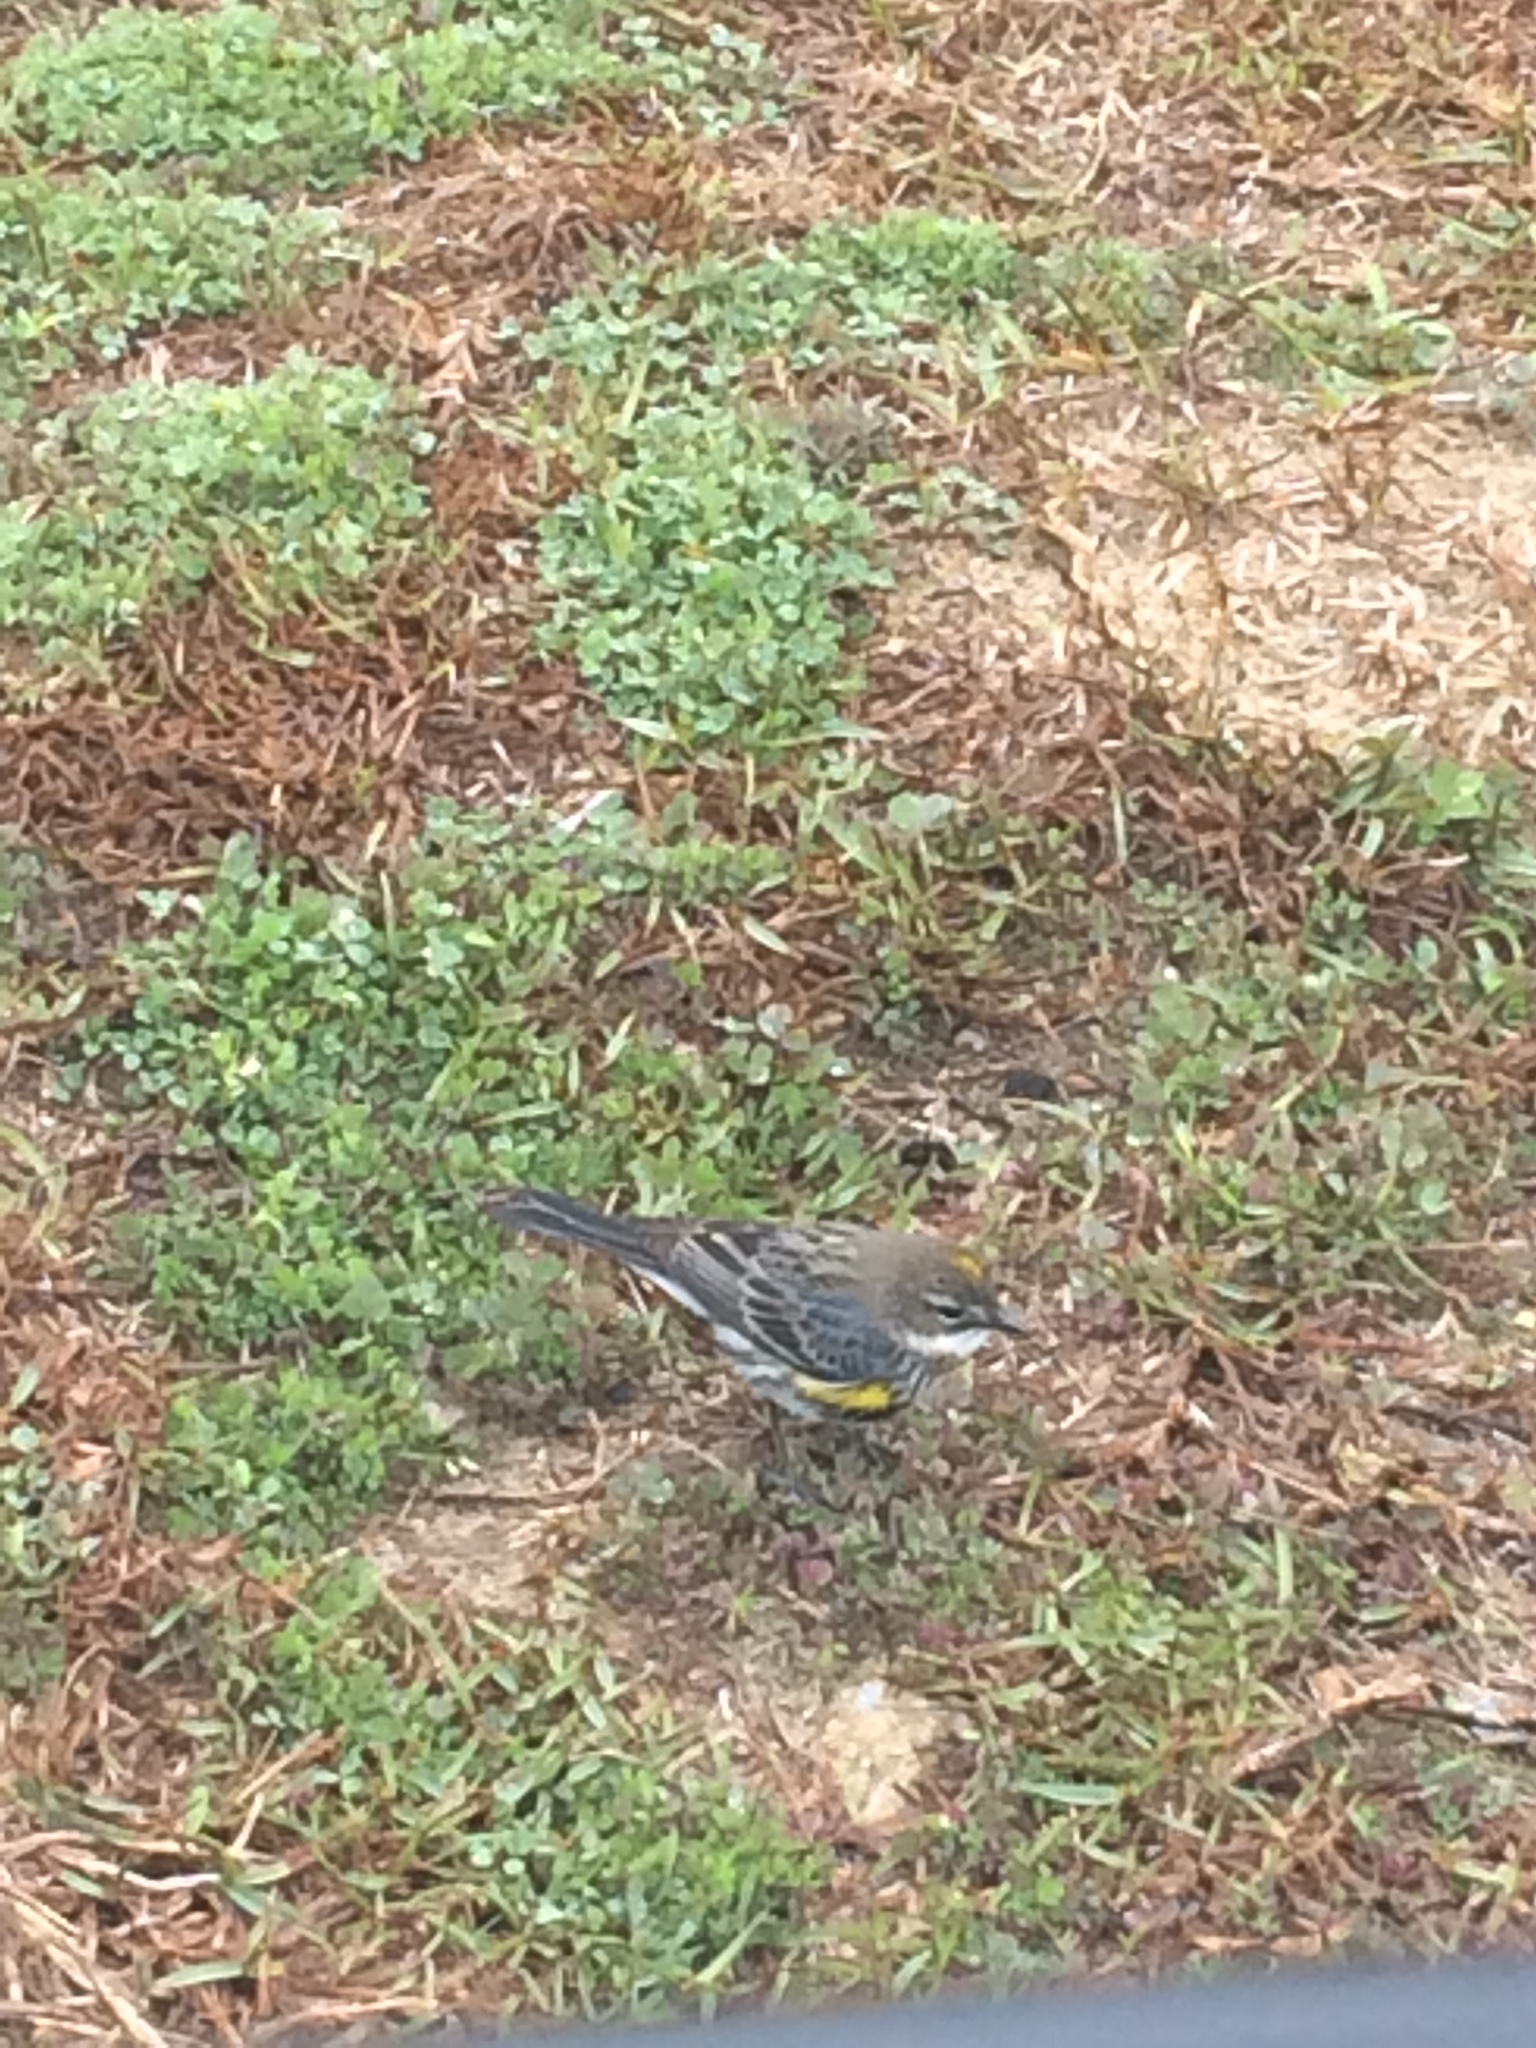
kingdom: Animalia
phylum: Chordata
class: Aves
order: Passeriformes
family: Parulidae
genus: Setophaga
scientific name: Setophaga coronata
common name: Myrtle warbler
